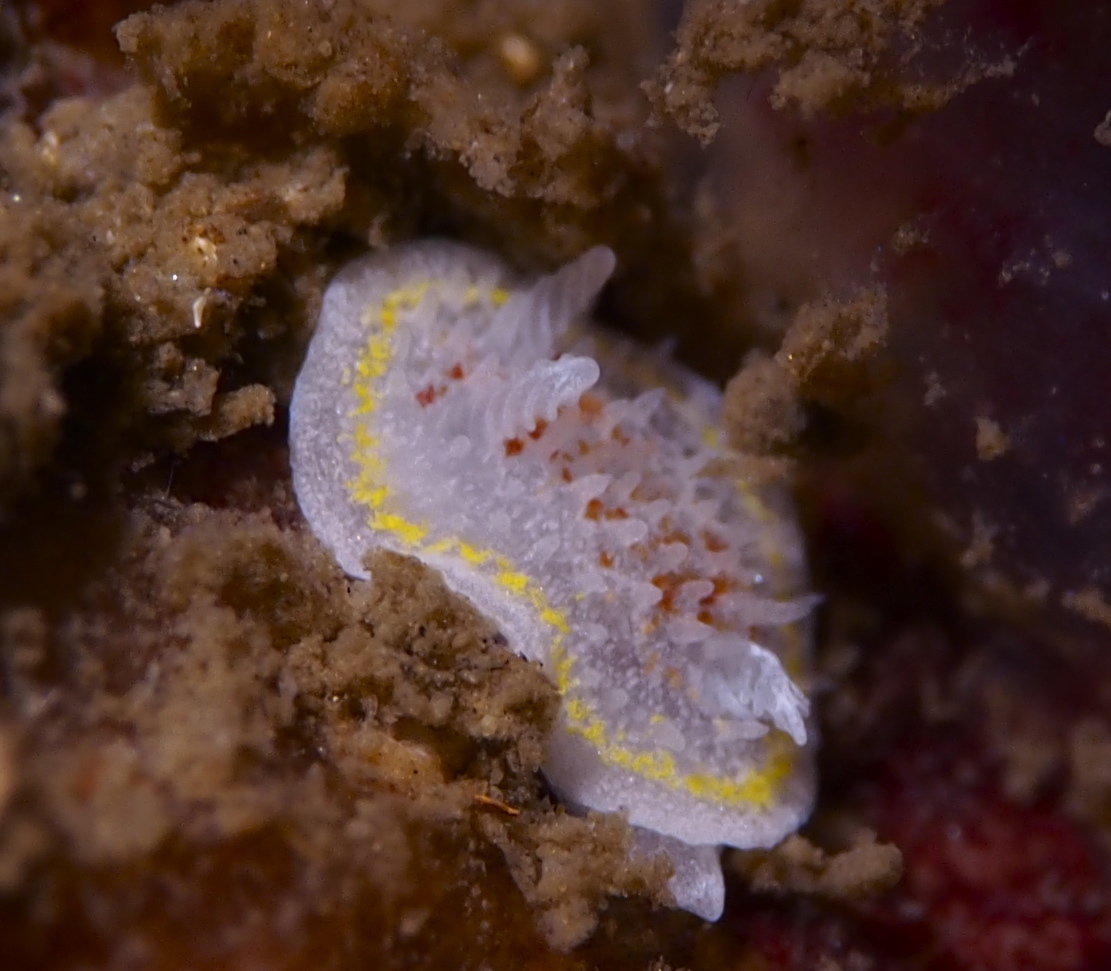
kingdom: Animalia
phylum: Mollusca
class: Gastropoda
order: Nudibranchia
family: Calycidorididae
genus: Diaphorodoris
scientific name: Diaphorodoris luteocincta
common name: Fried egg nudibranch
